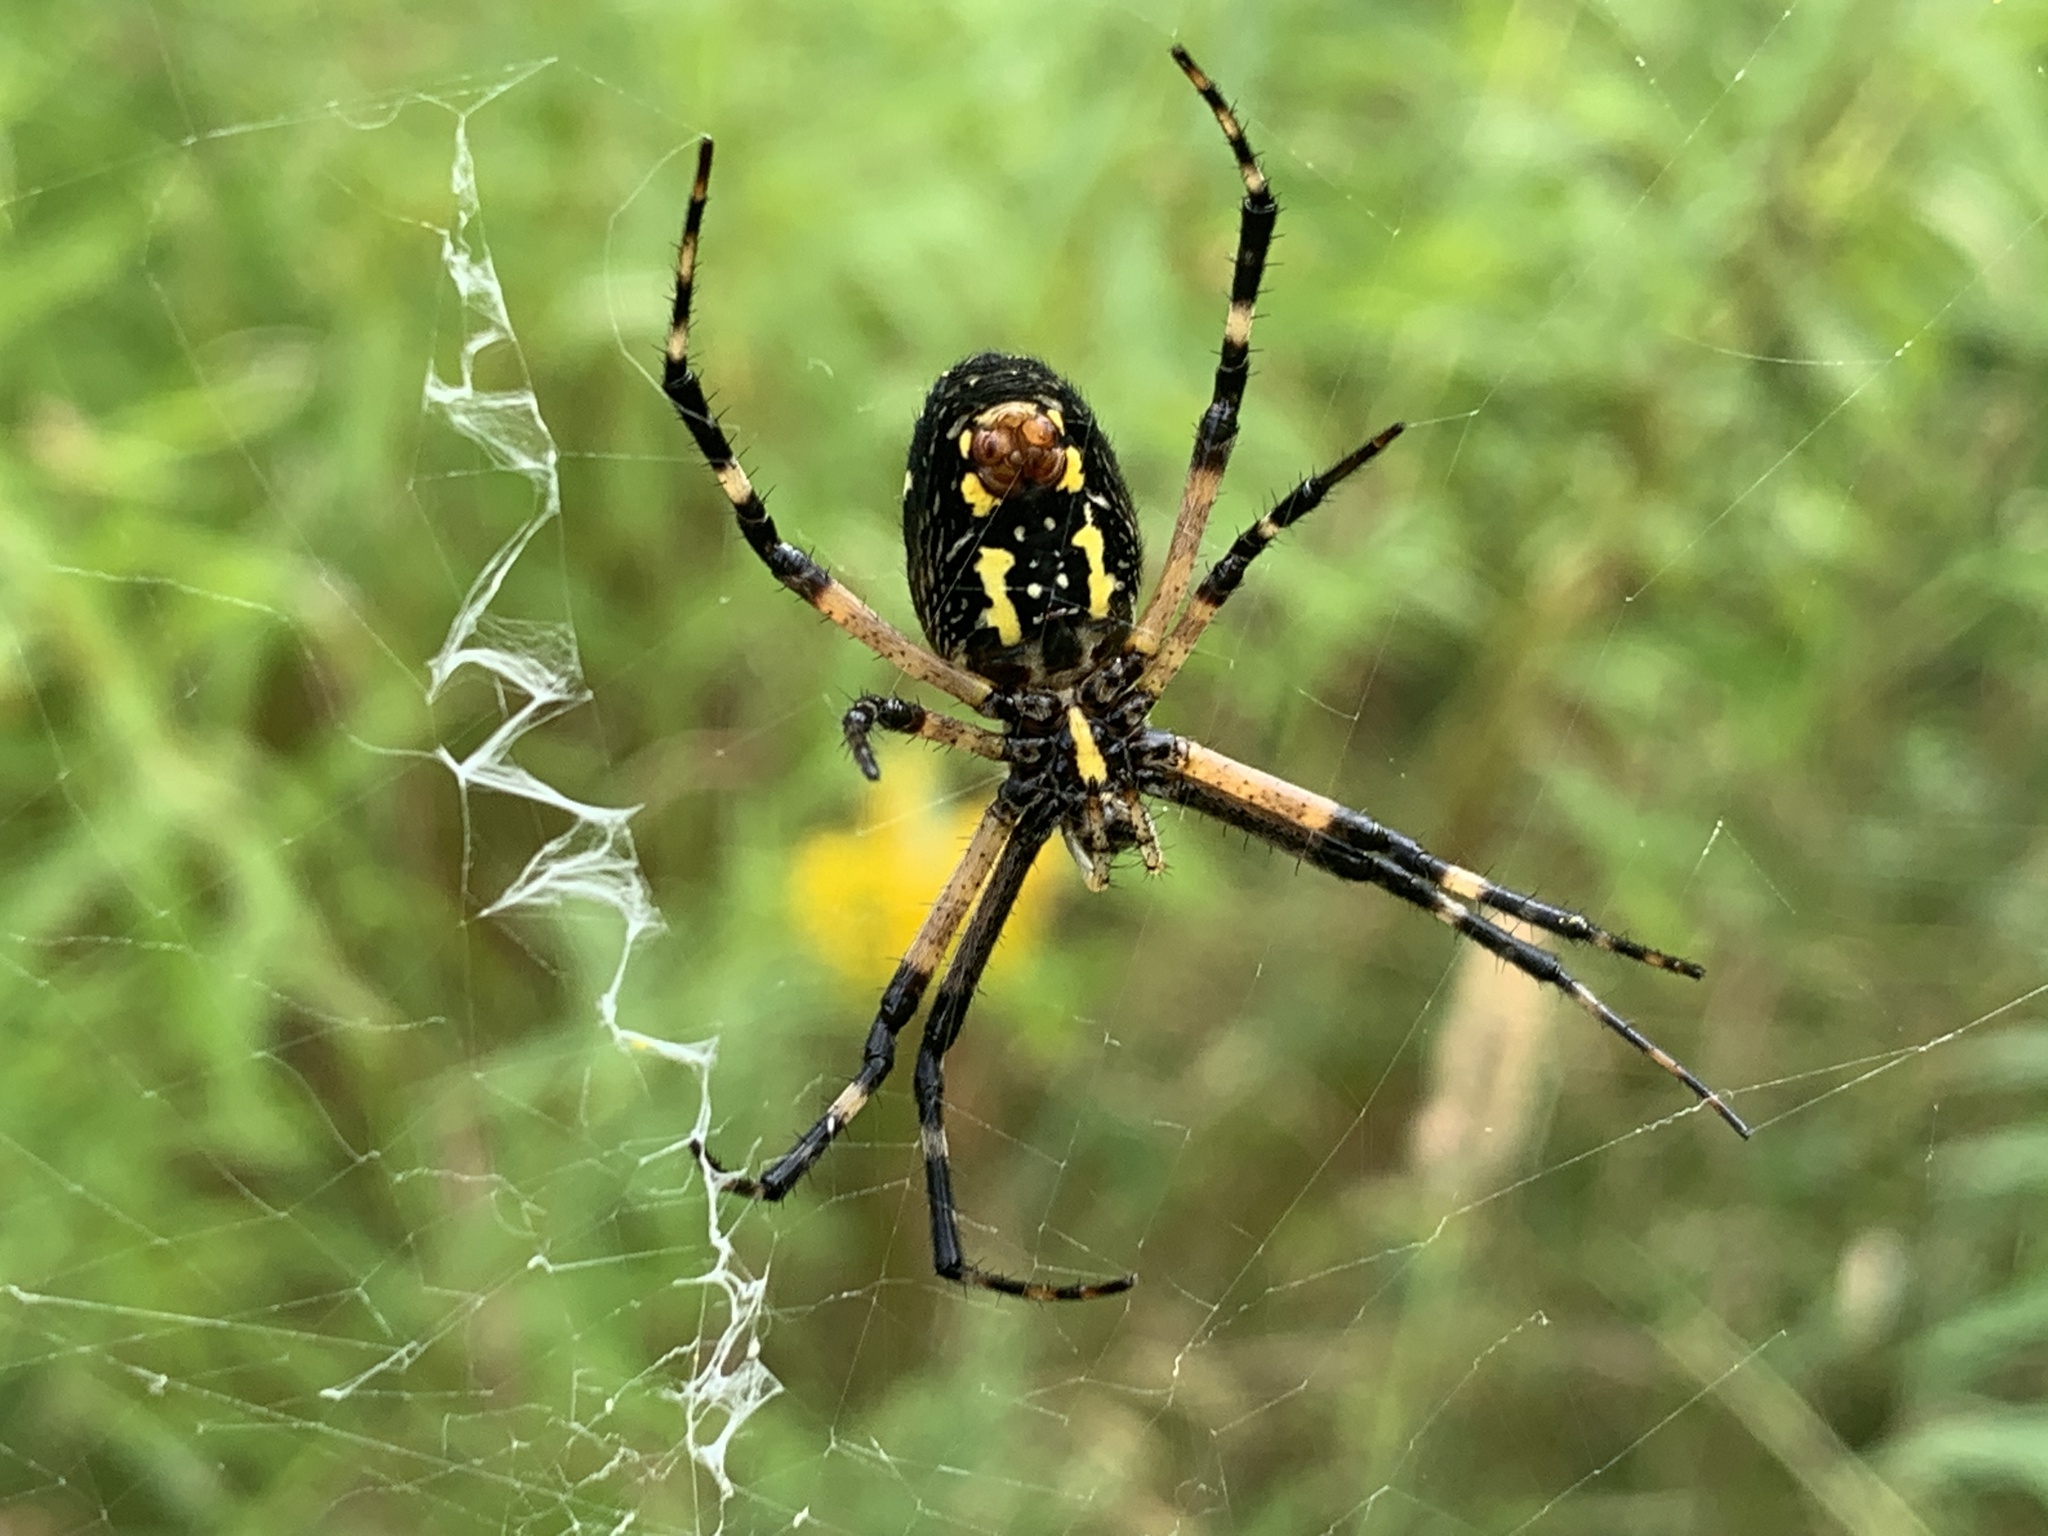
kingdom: Animalia
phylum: Arthropoda
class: Arachnida
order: Araneae
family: Araneidae
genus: Argiope
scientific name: Argiope aurantia
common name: Orb weavers
